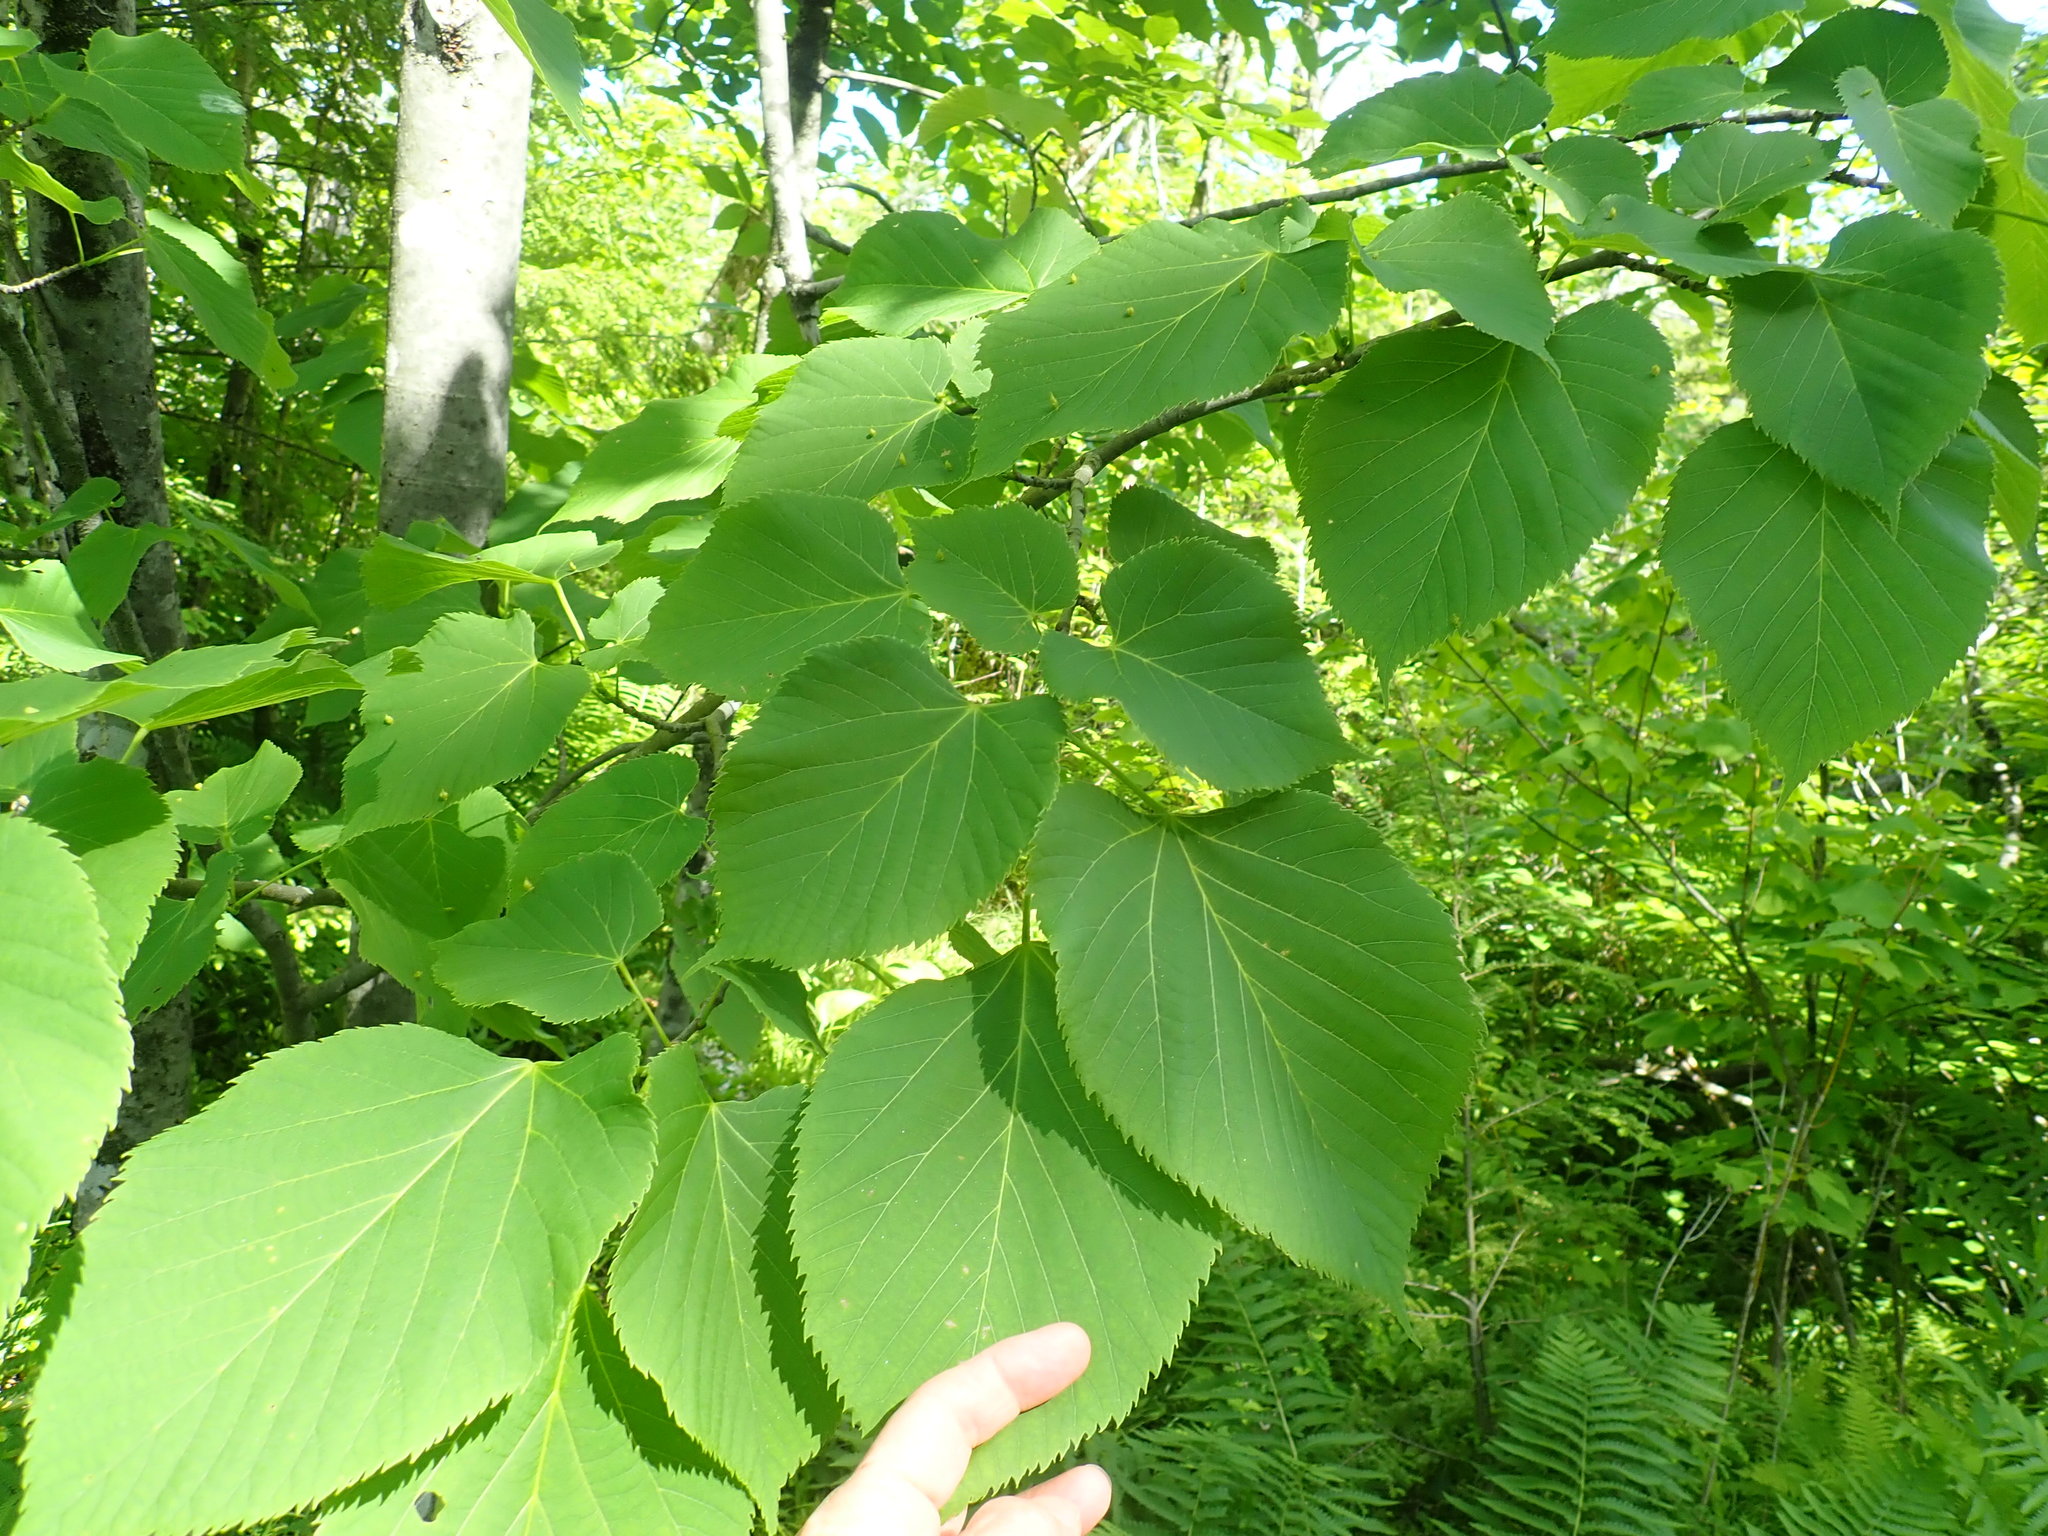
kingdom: Plantae
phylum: Tracheophyta
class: Magnoliopsida
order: Malvales
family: Malvaceae
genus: Tilia
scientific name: Tilia americana
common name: Basswood
